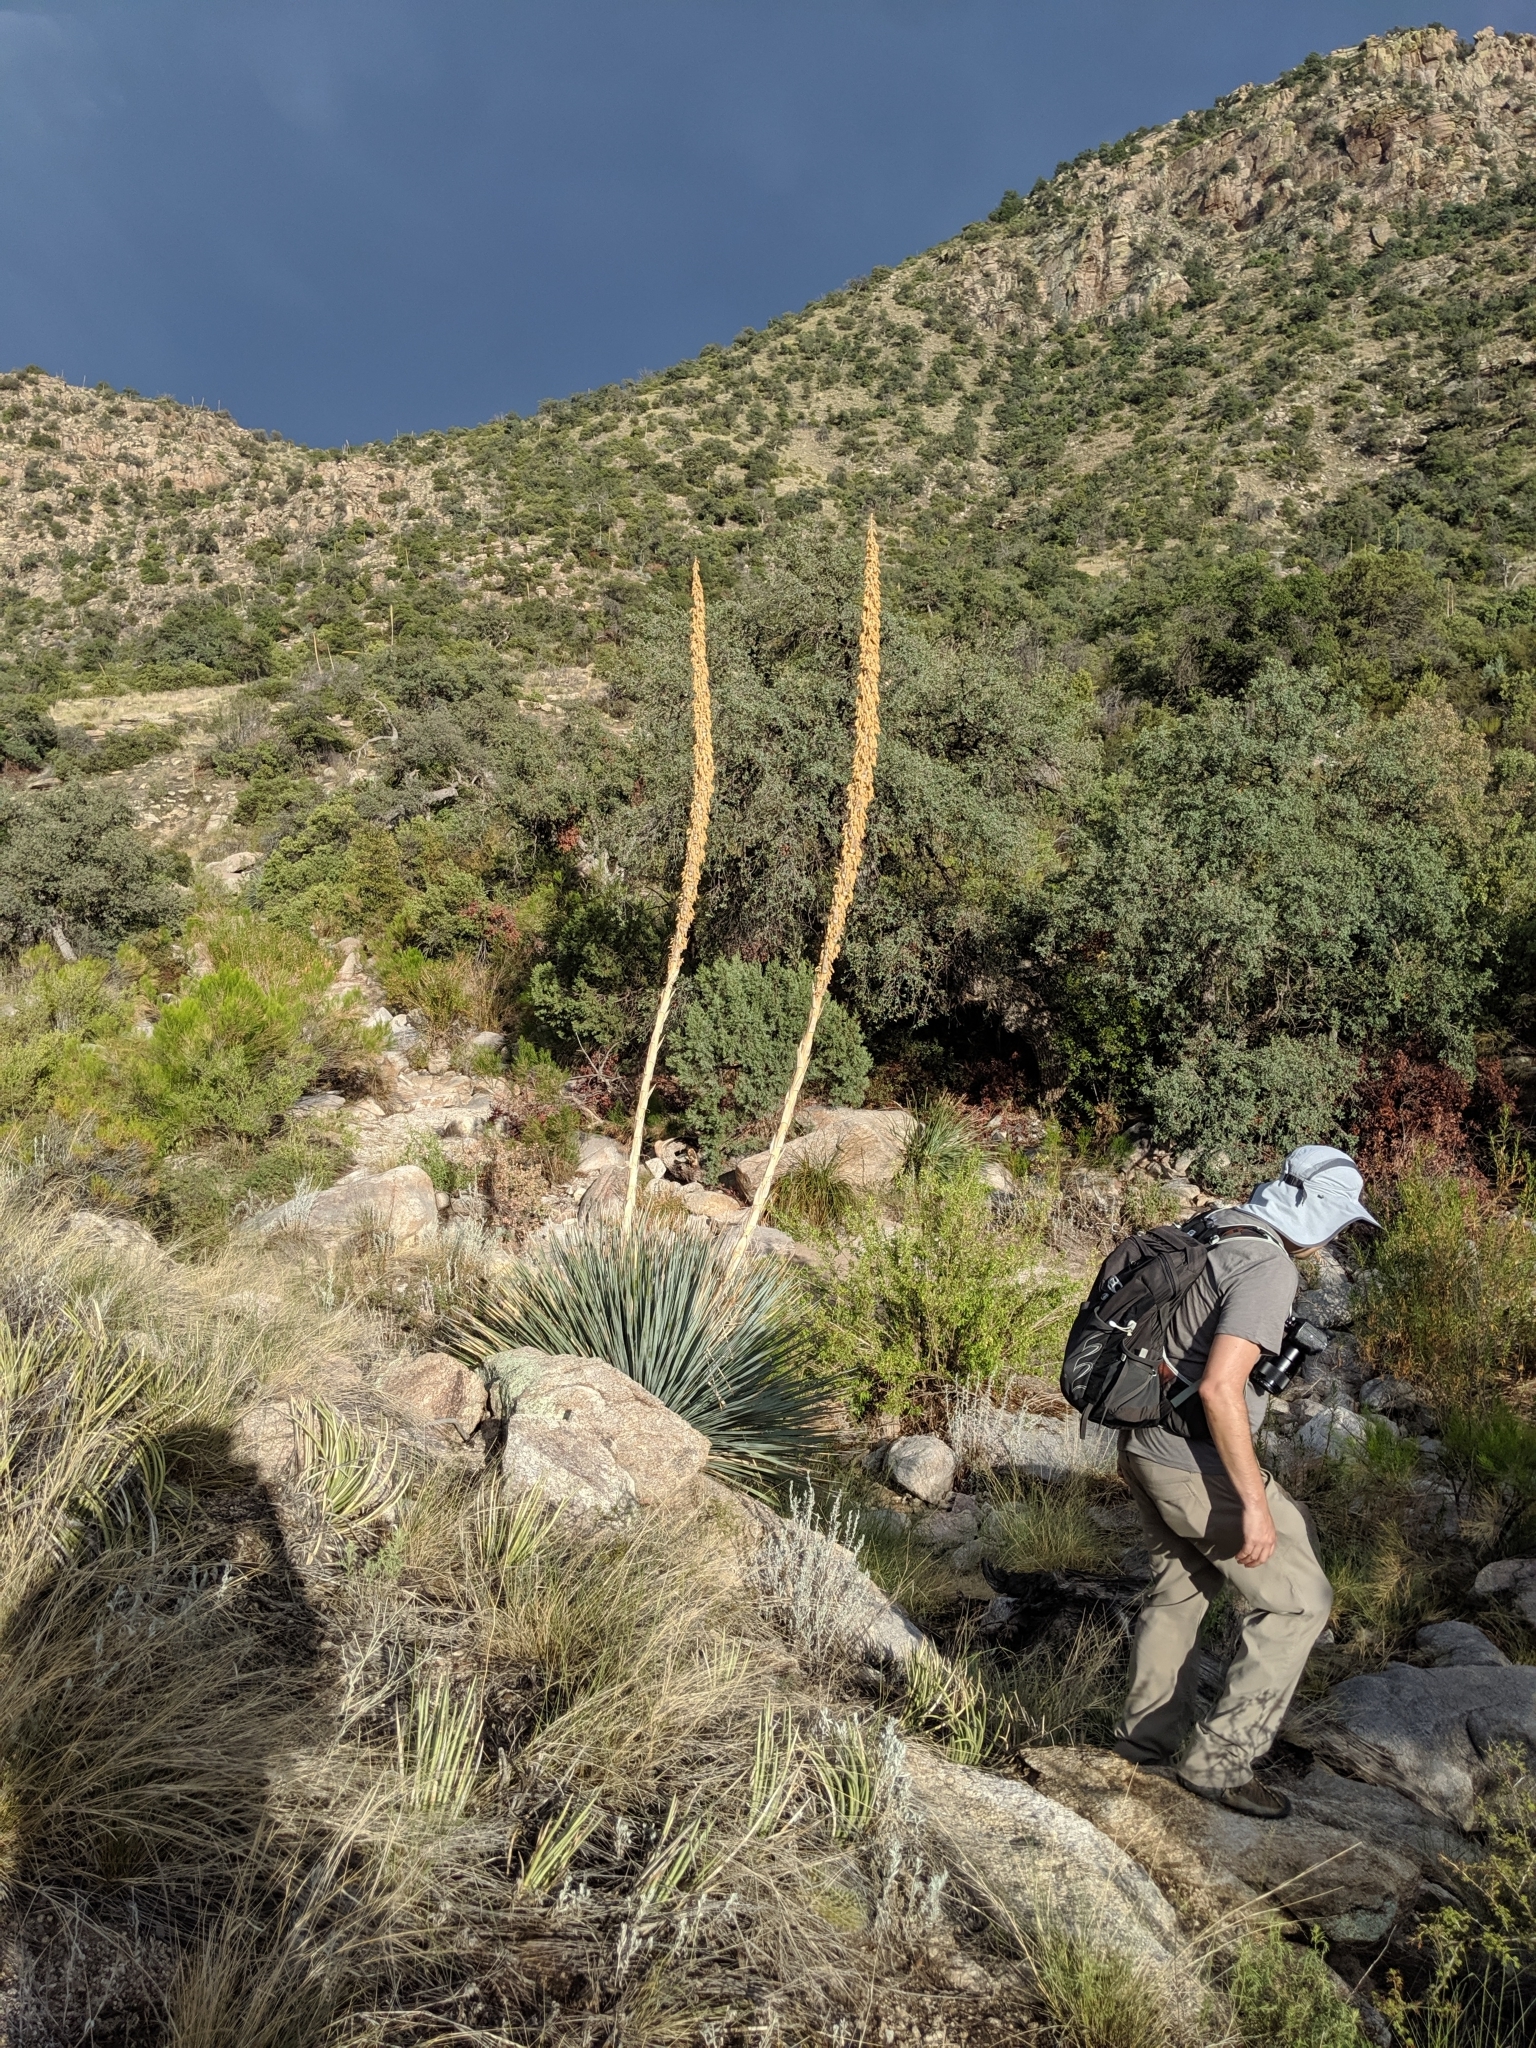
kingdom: Plantae
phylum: Tracheophyta
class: Liliopsida
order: Asparagales
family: Asparagaceae
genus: Dasylirion
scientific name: Dasylirion wheeleri
